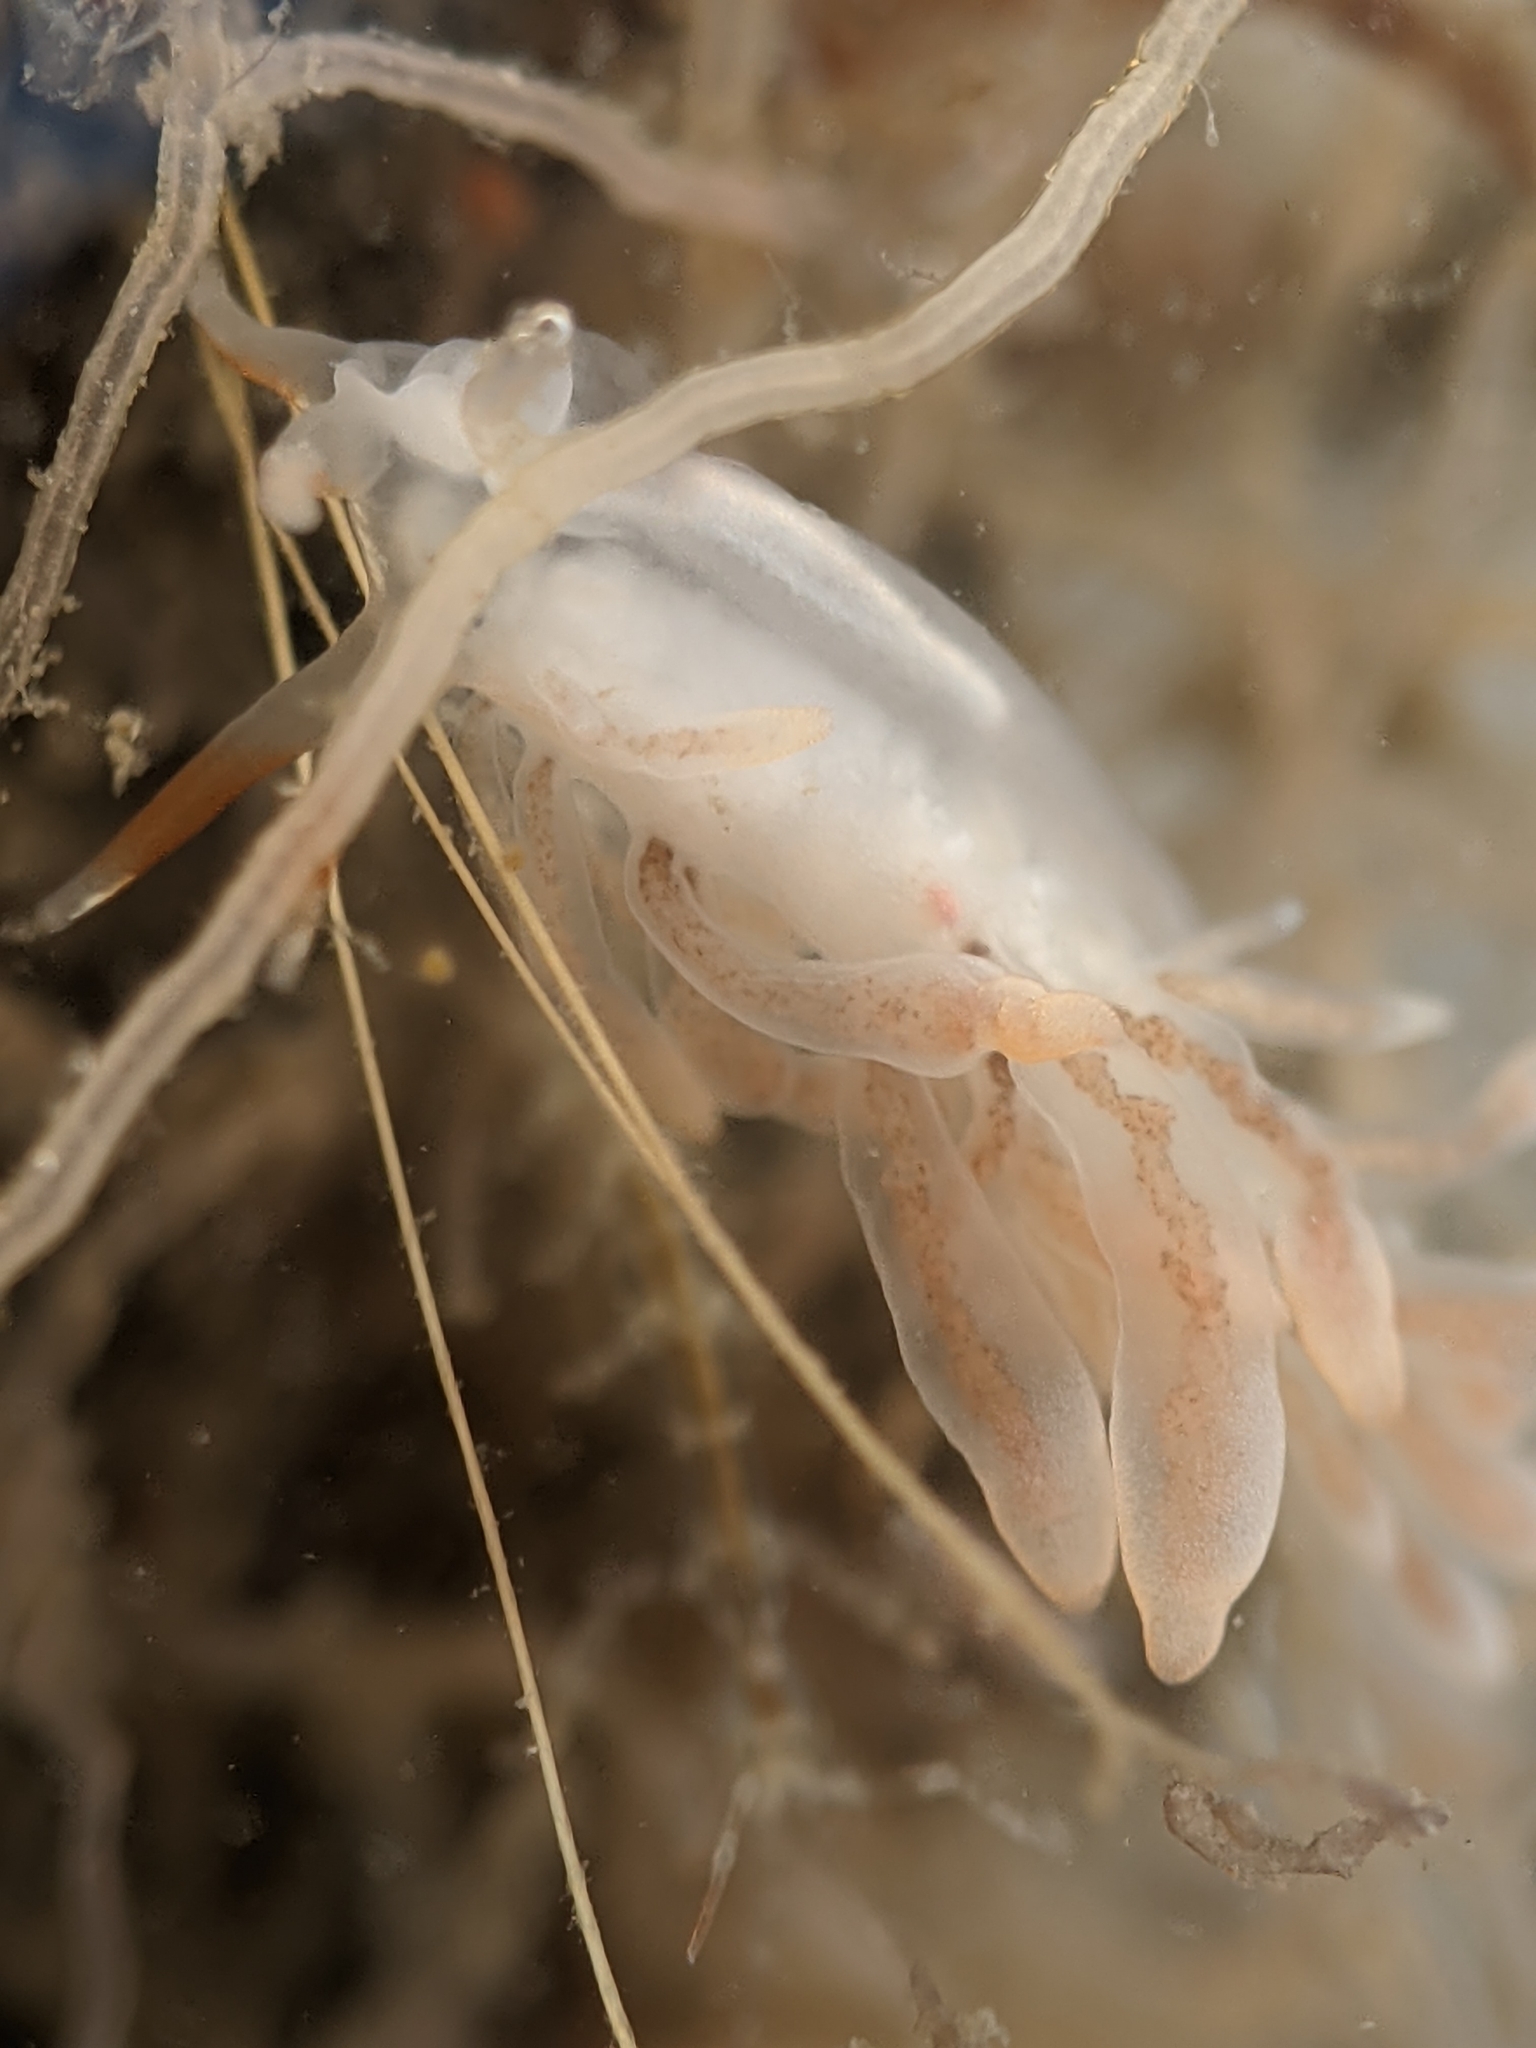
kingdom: Animalia
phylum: Mollusca
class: Gastropoda
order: Nudibranchia
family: Trinchesiidae
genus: Catriona
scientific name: Catriona spadix
